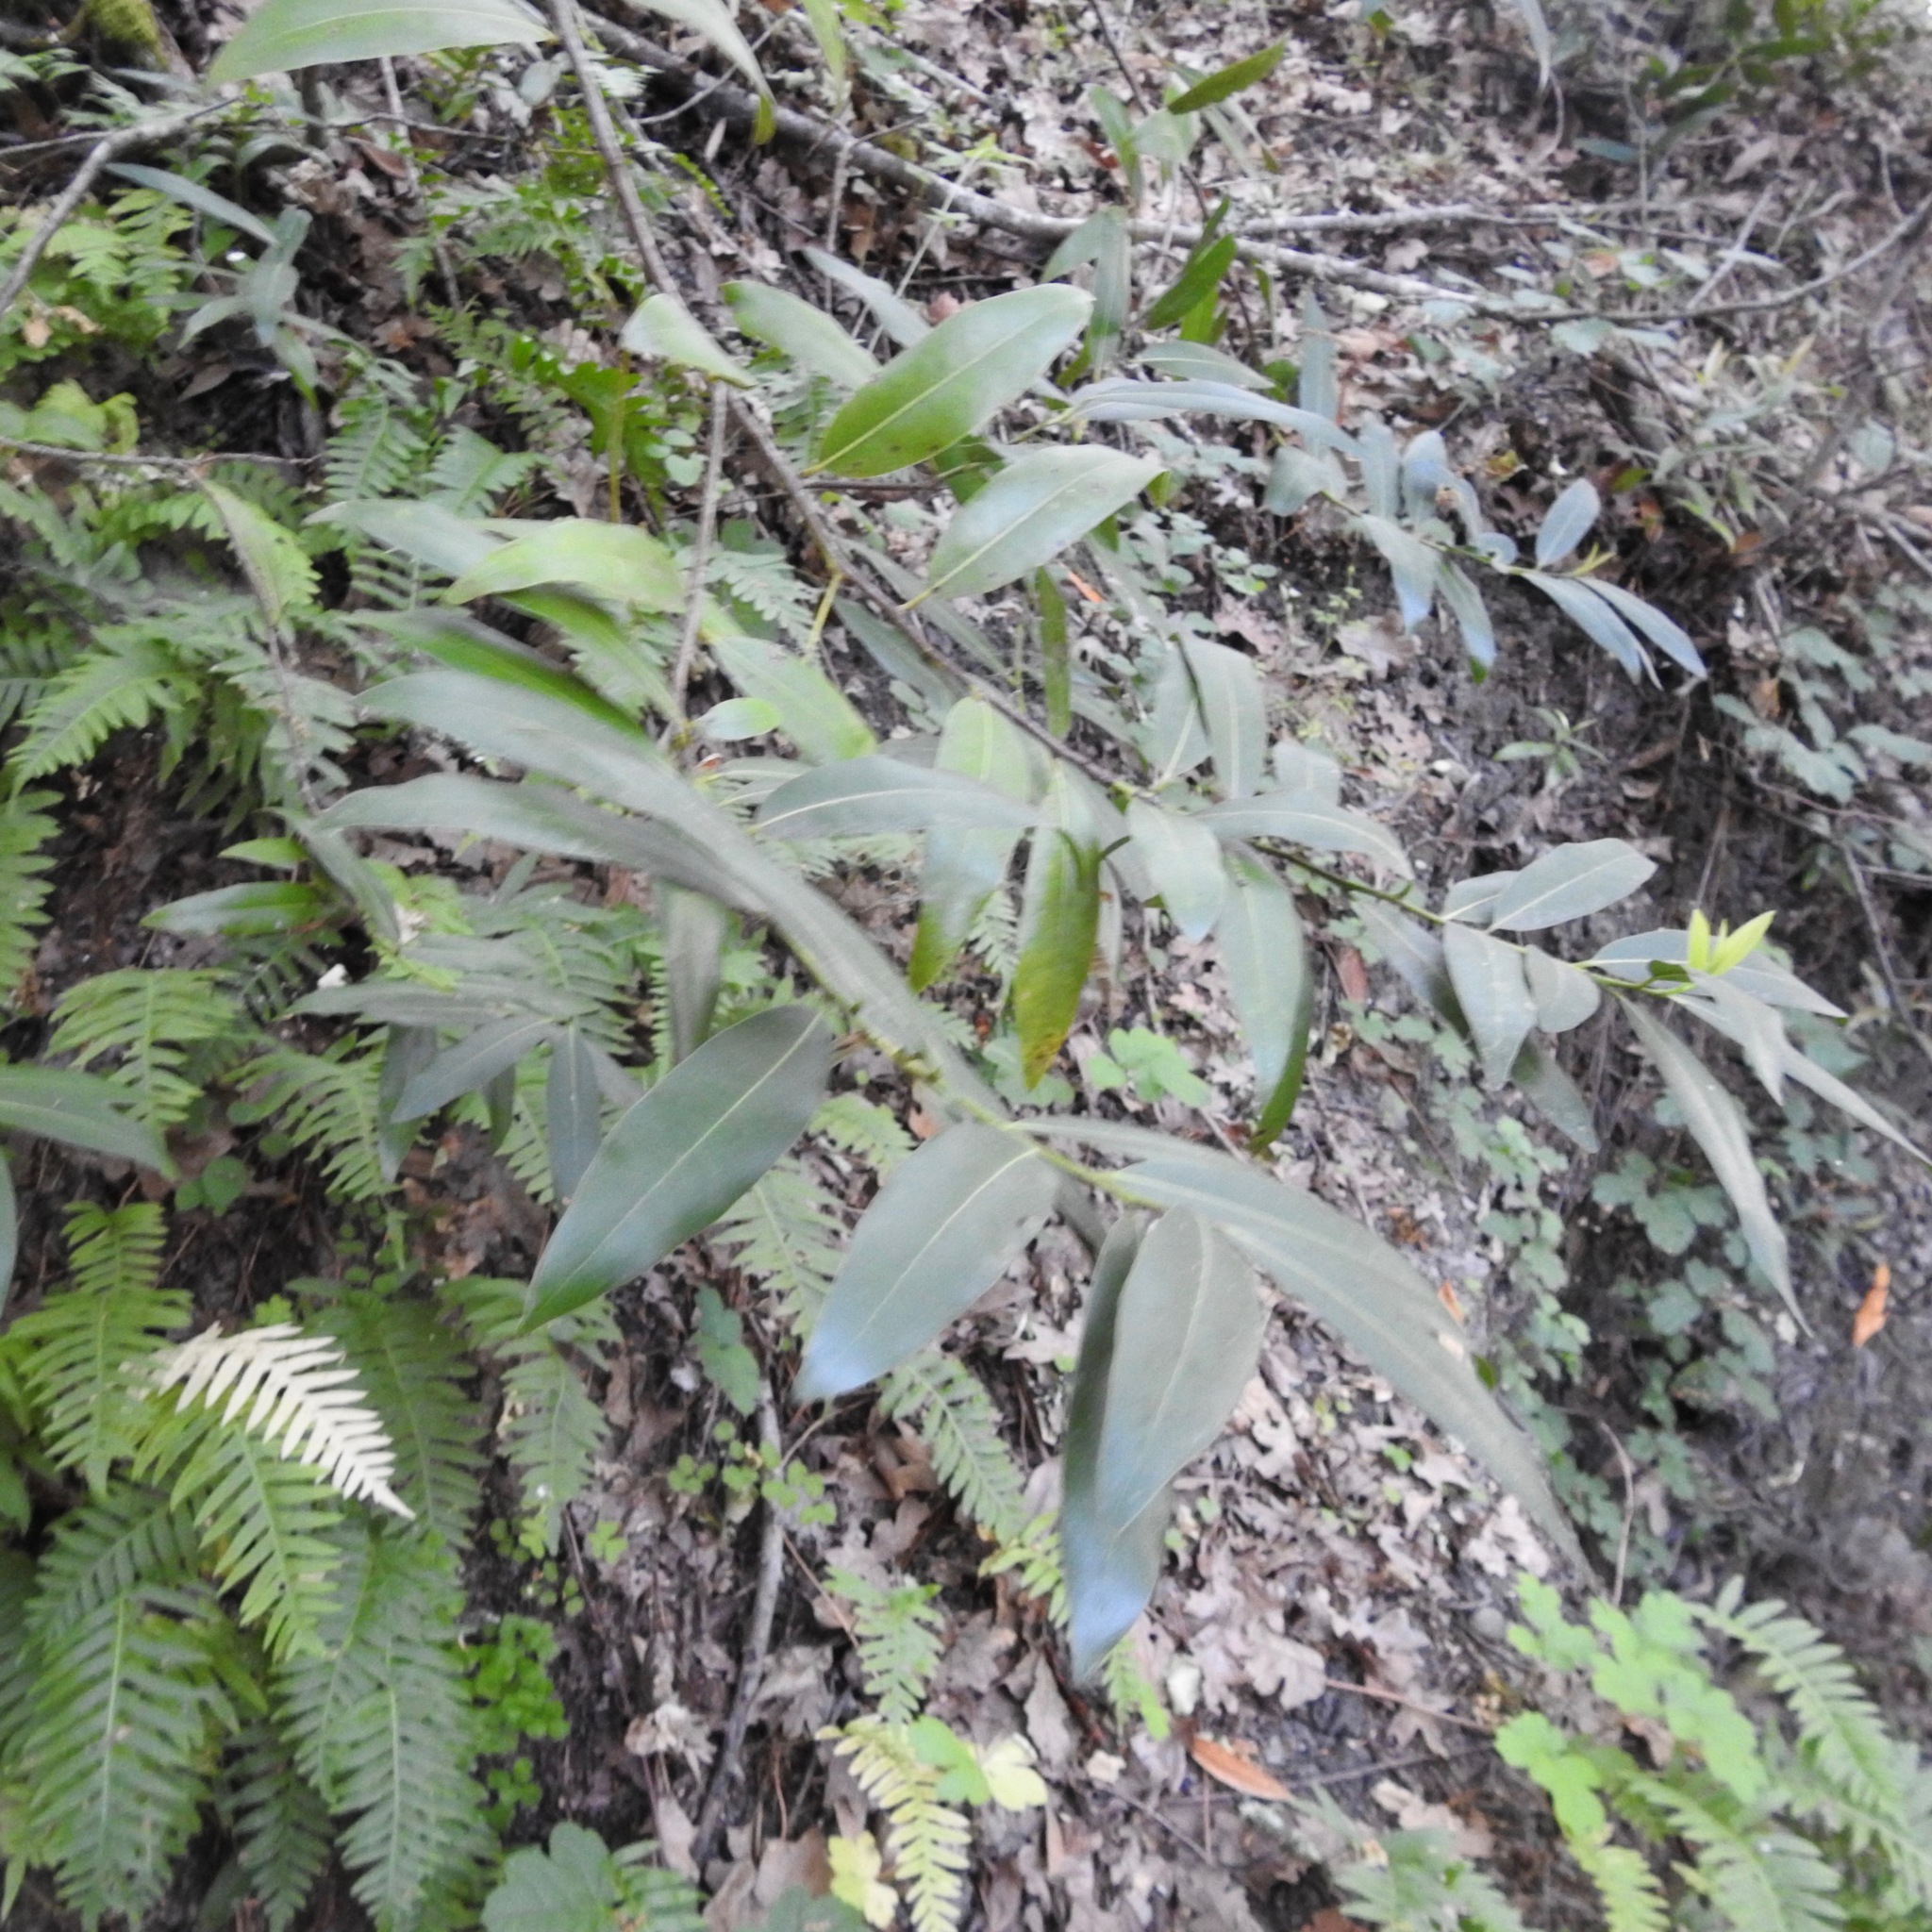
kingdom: Plantae
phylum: Tracheophyta
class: Magnoliopsida
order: Laurales
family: Lauraceae
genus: Umbellularia
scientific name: Umbellularia californica
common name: California bay
